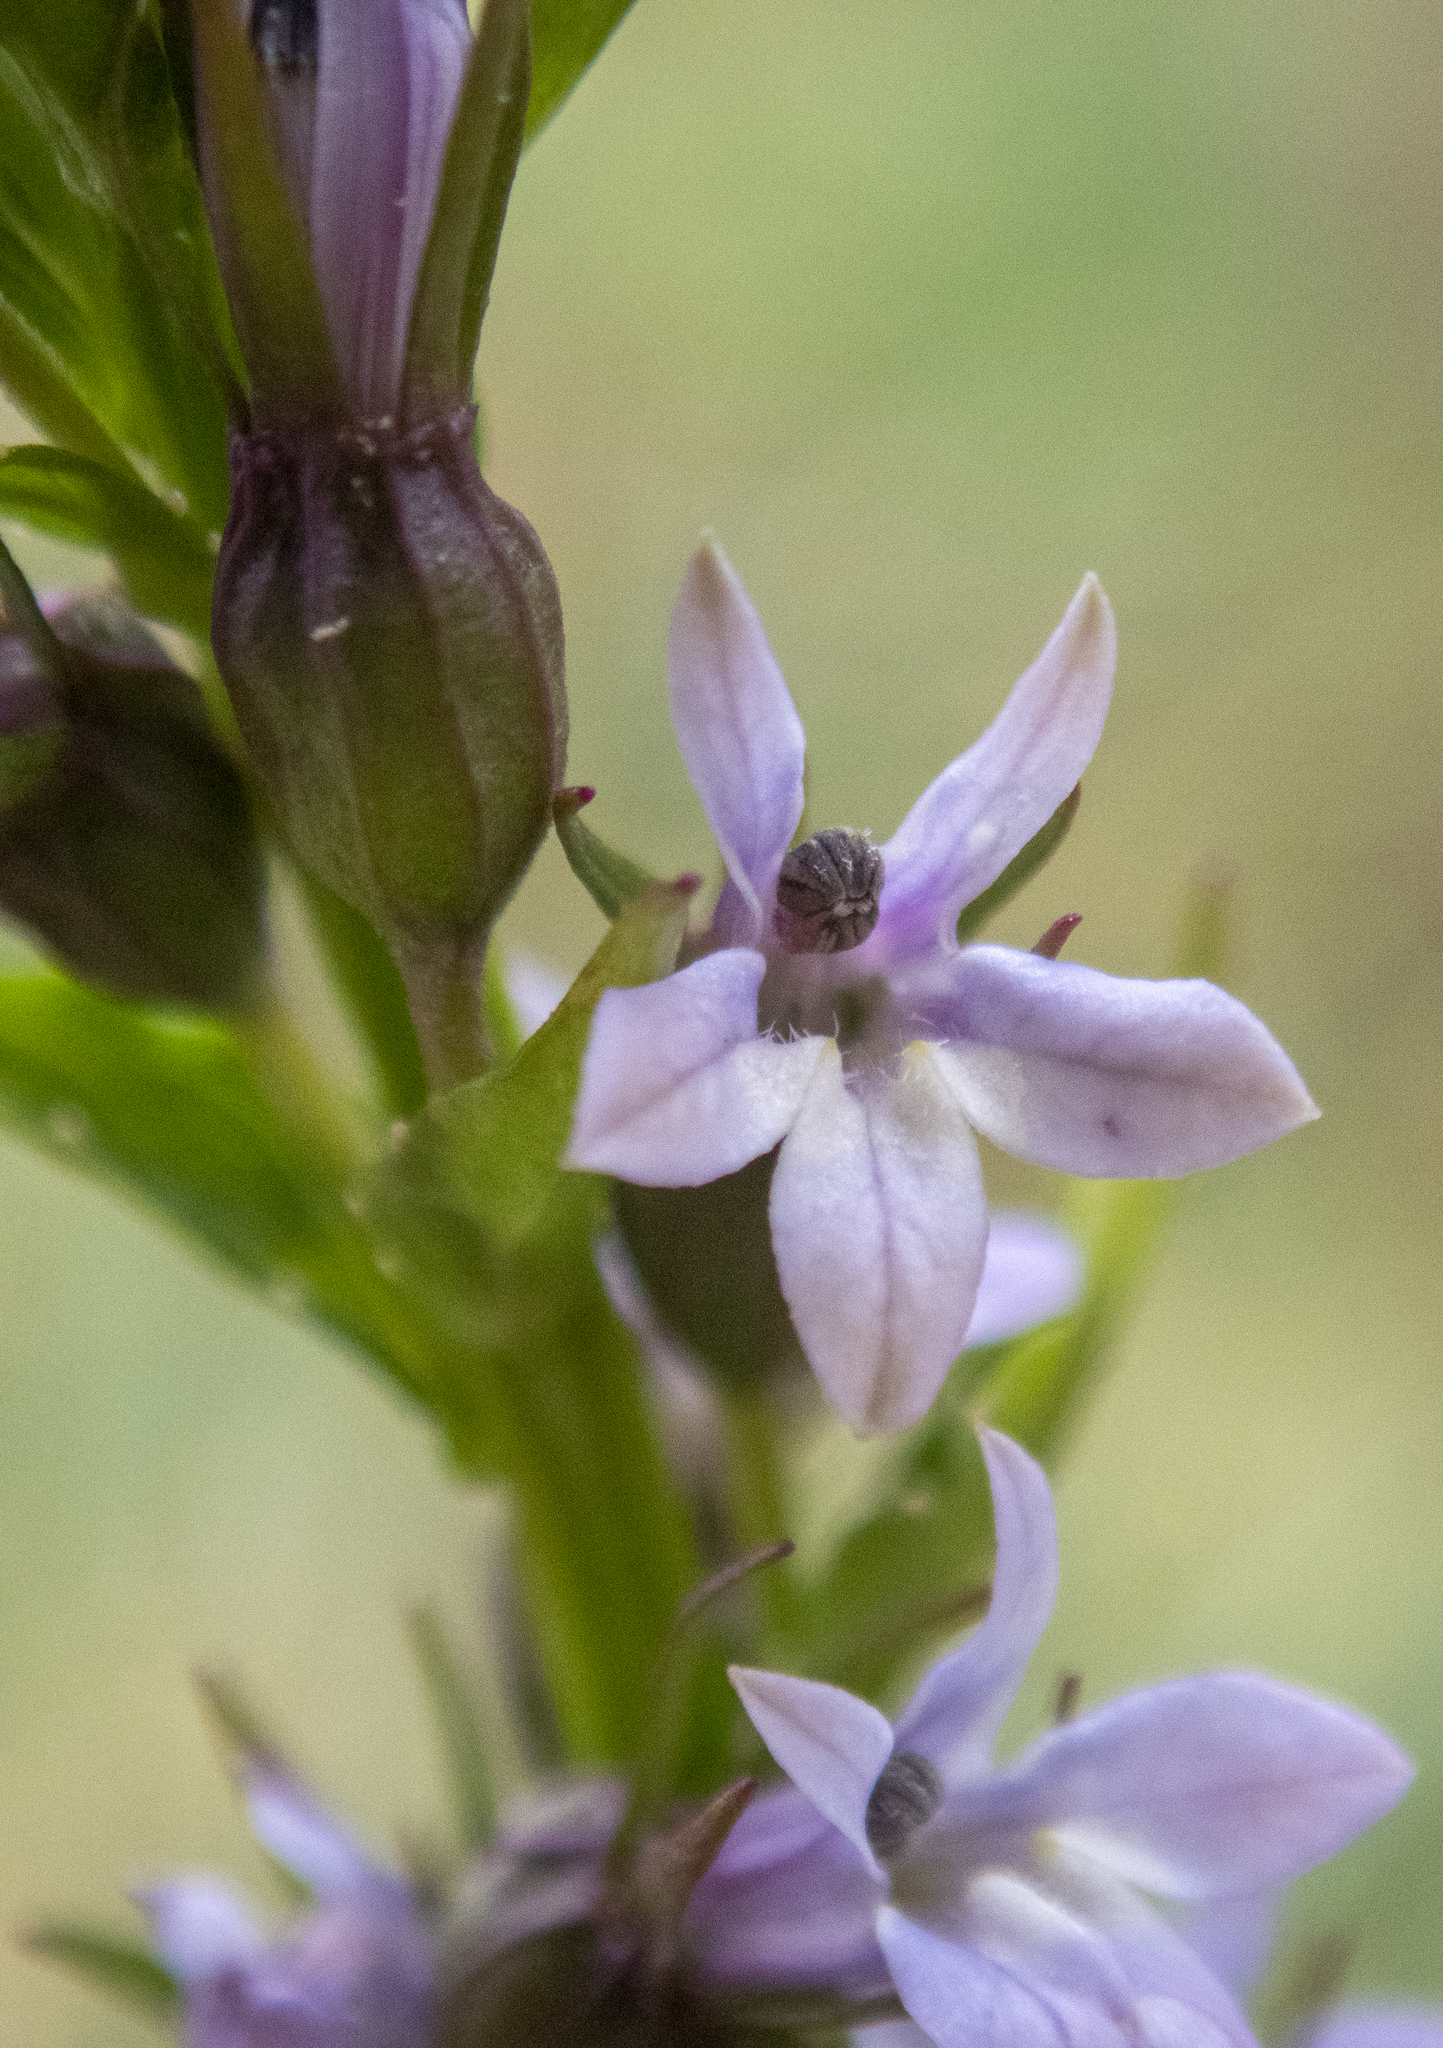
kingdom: Plantae
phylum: Tracheophyta
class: Magnoliopsida
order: Asterales
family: Campanulaceae
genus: Lobelia
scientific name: Lobelia inflata
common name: Indian tobacco
